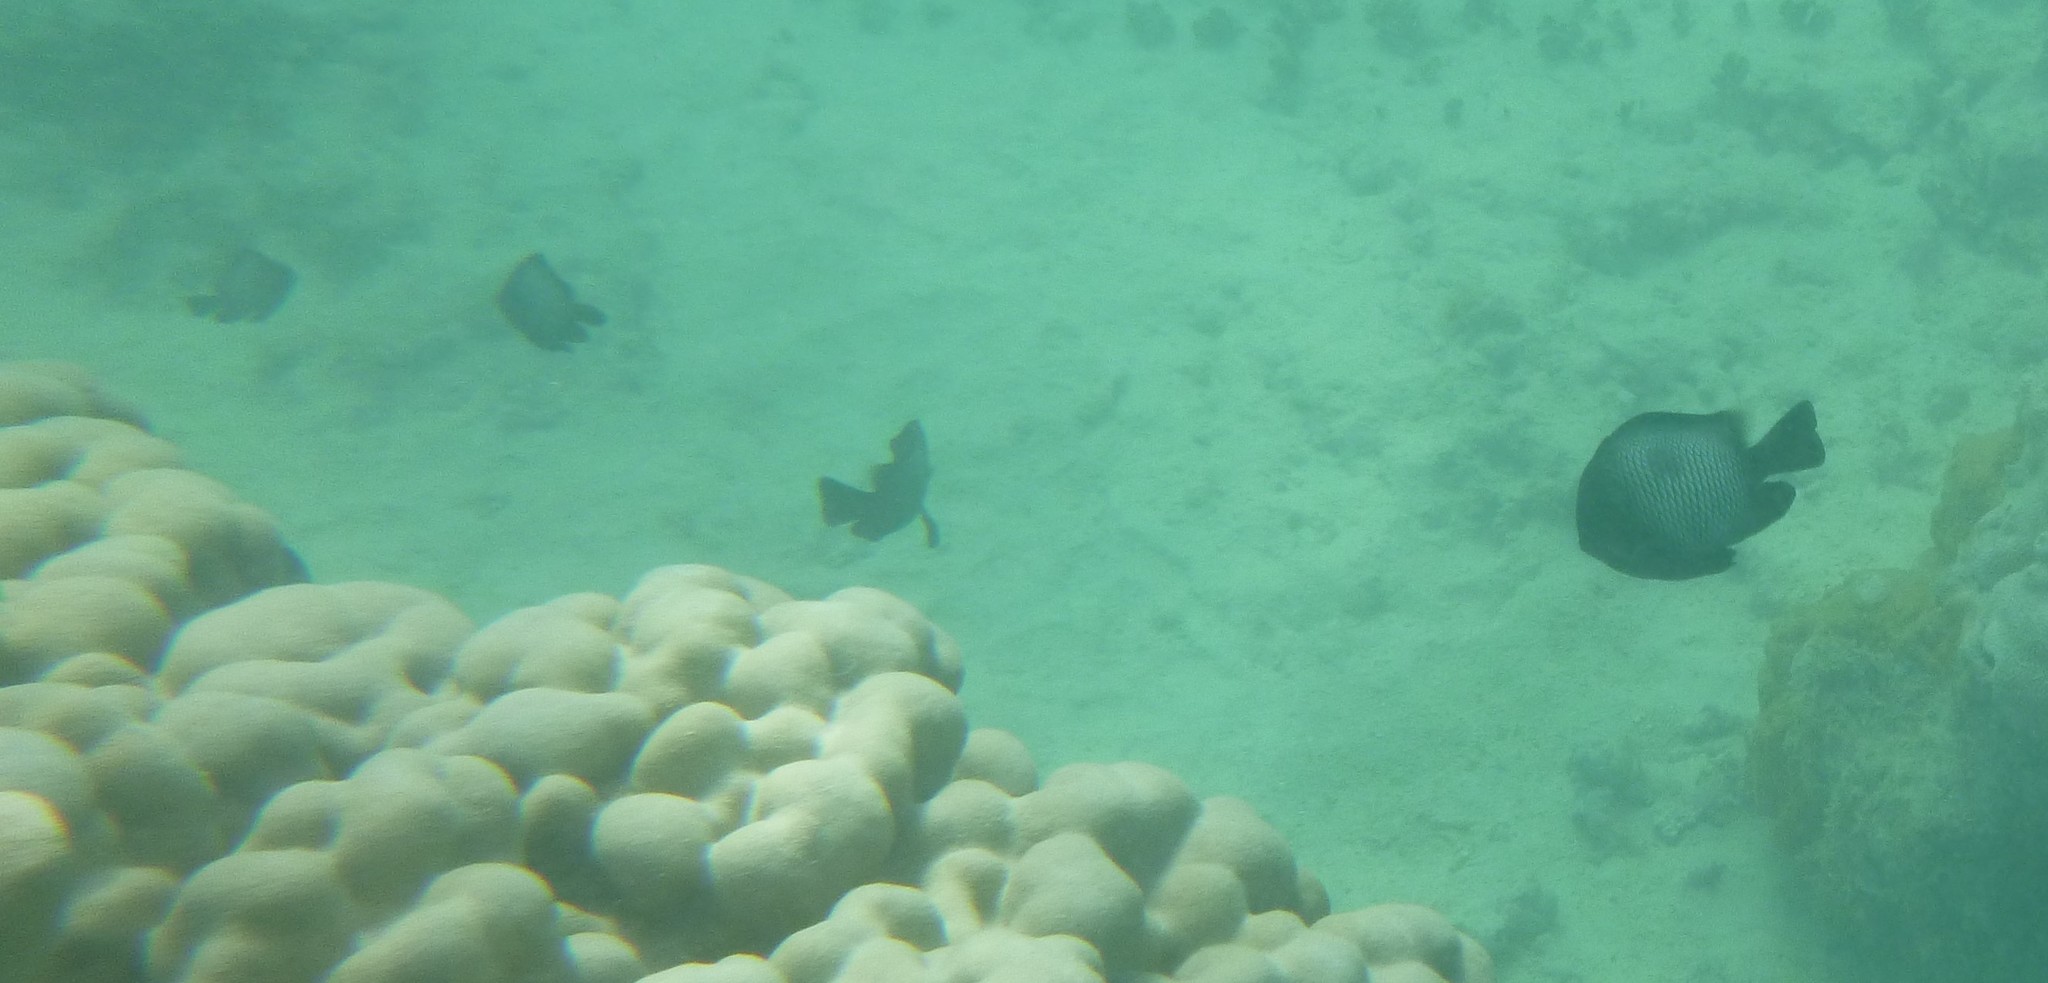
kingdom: Animalia
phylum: Chordata
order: Perciformes
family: Pomacentridae
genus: Dascyllus
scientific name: Dascyllus albisella
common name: Hawaiian dascyllus
